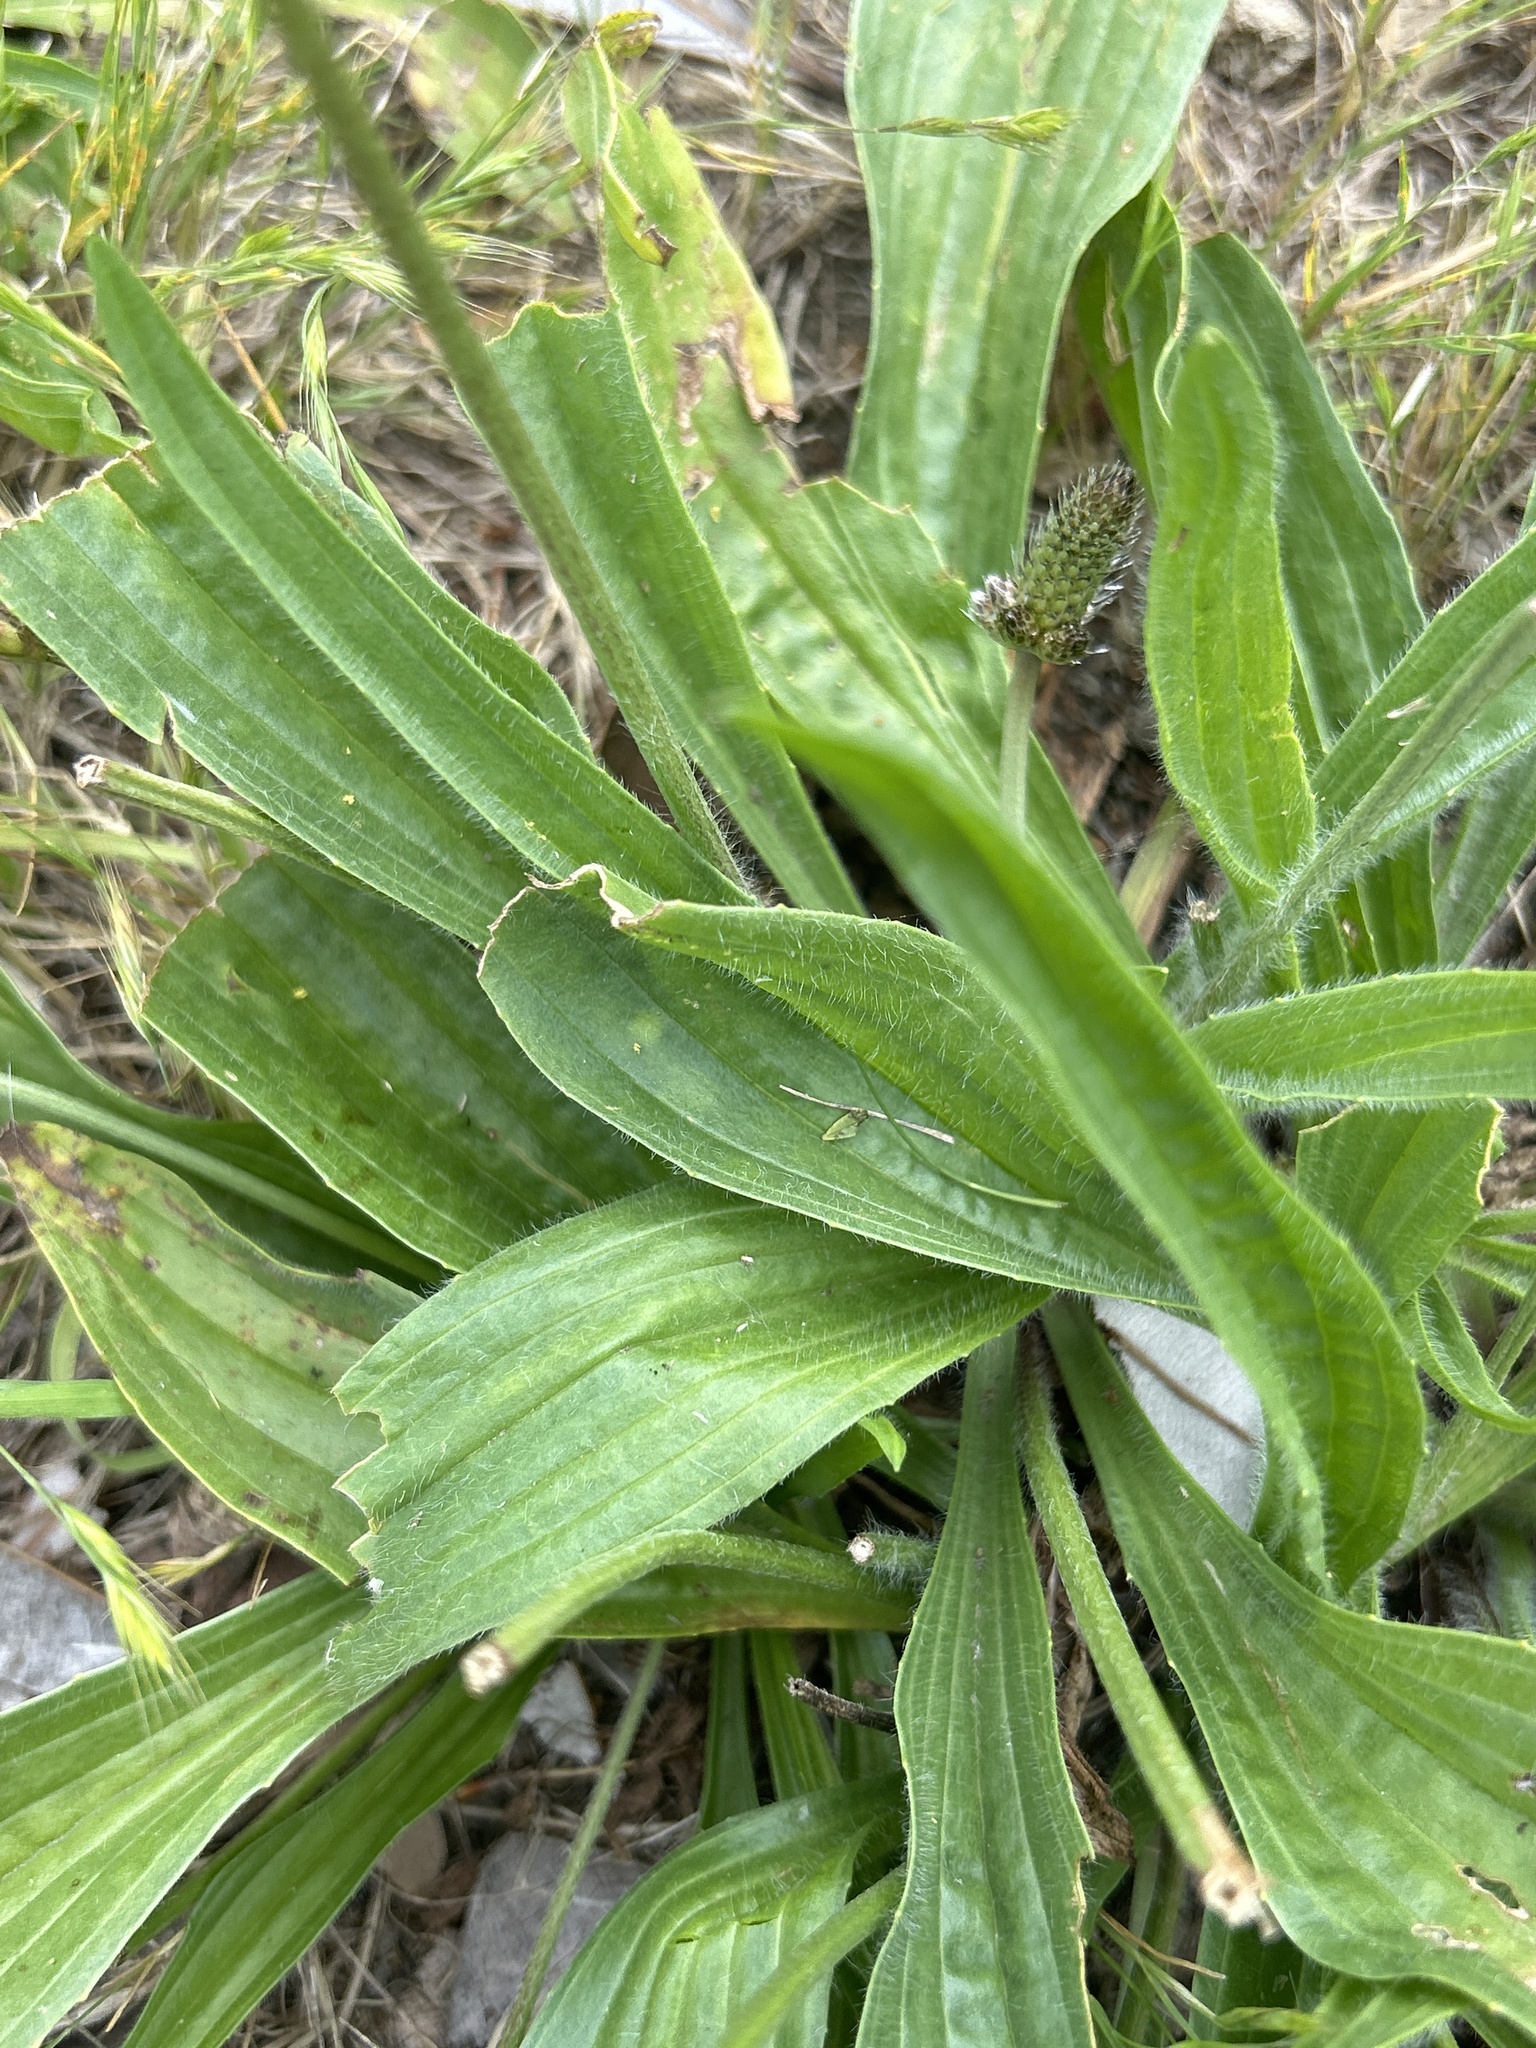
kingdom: Plantae
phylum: Tracheophyta
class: Magnoliopsida
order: Lamiales
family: Plantaginaceae
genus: Plantago
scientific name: Plantago lanceolata
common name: Ribwort plantain
